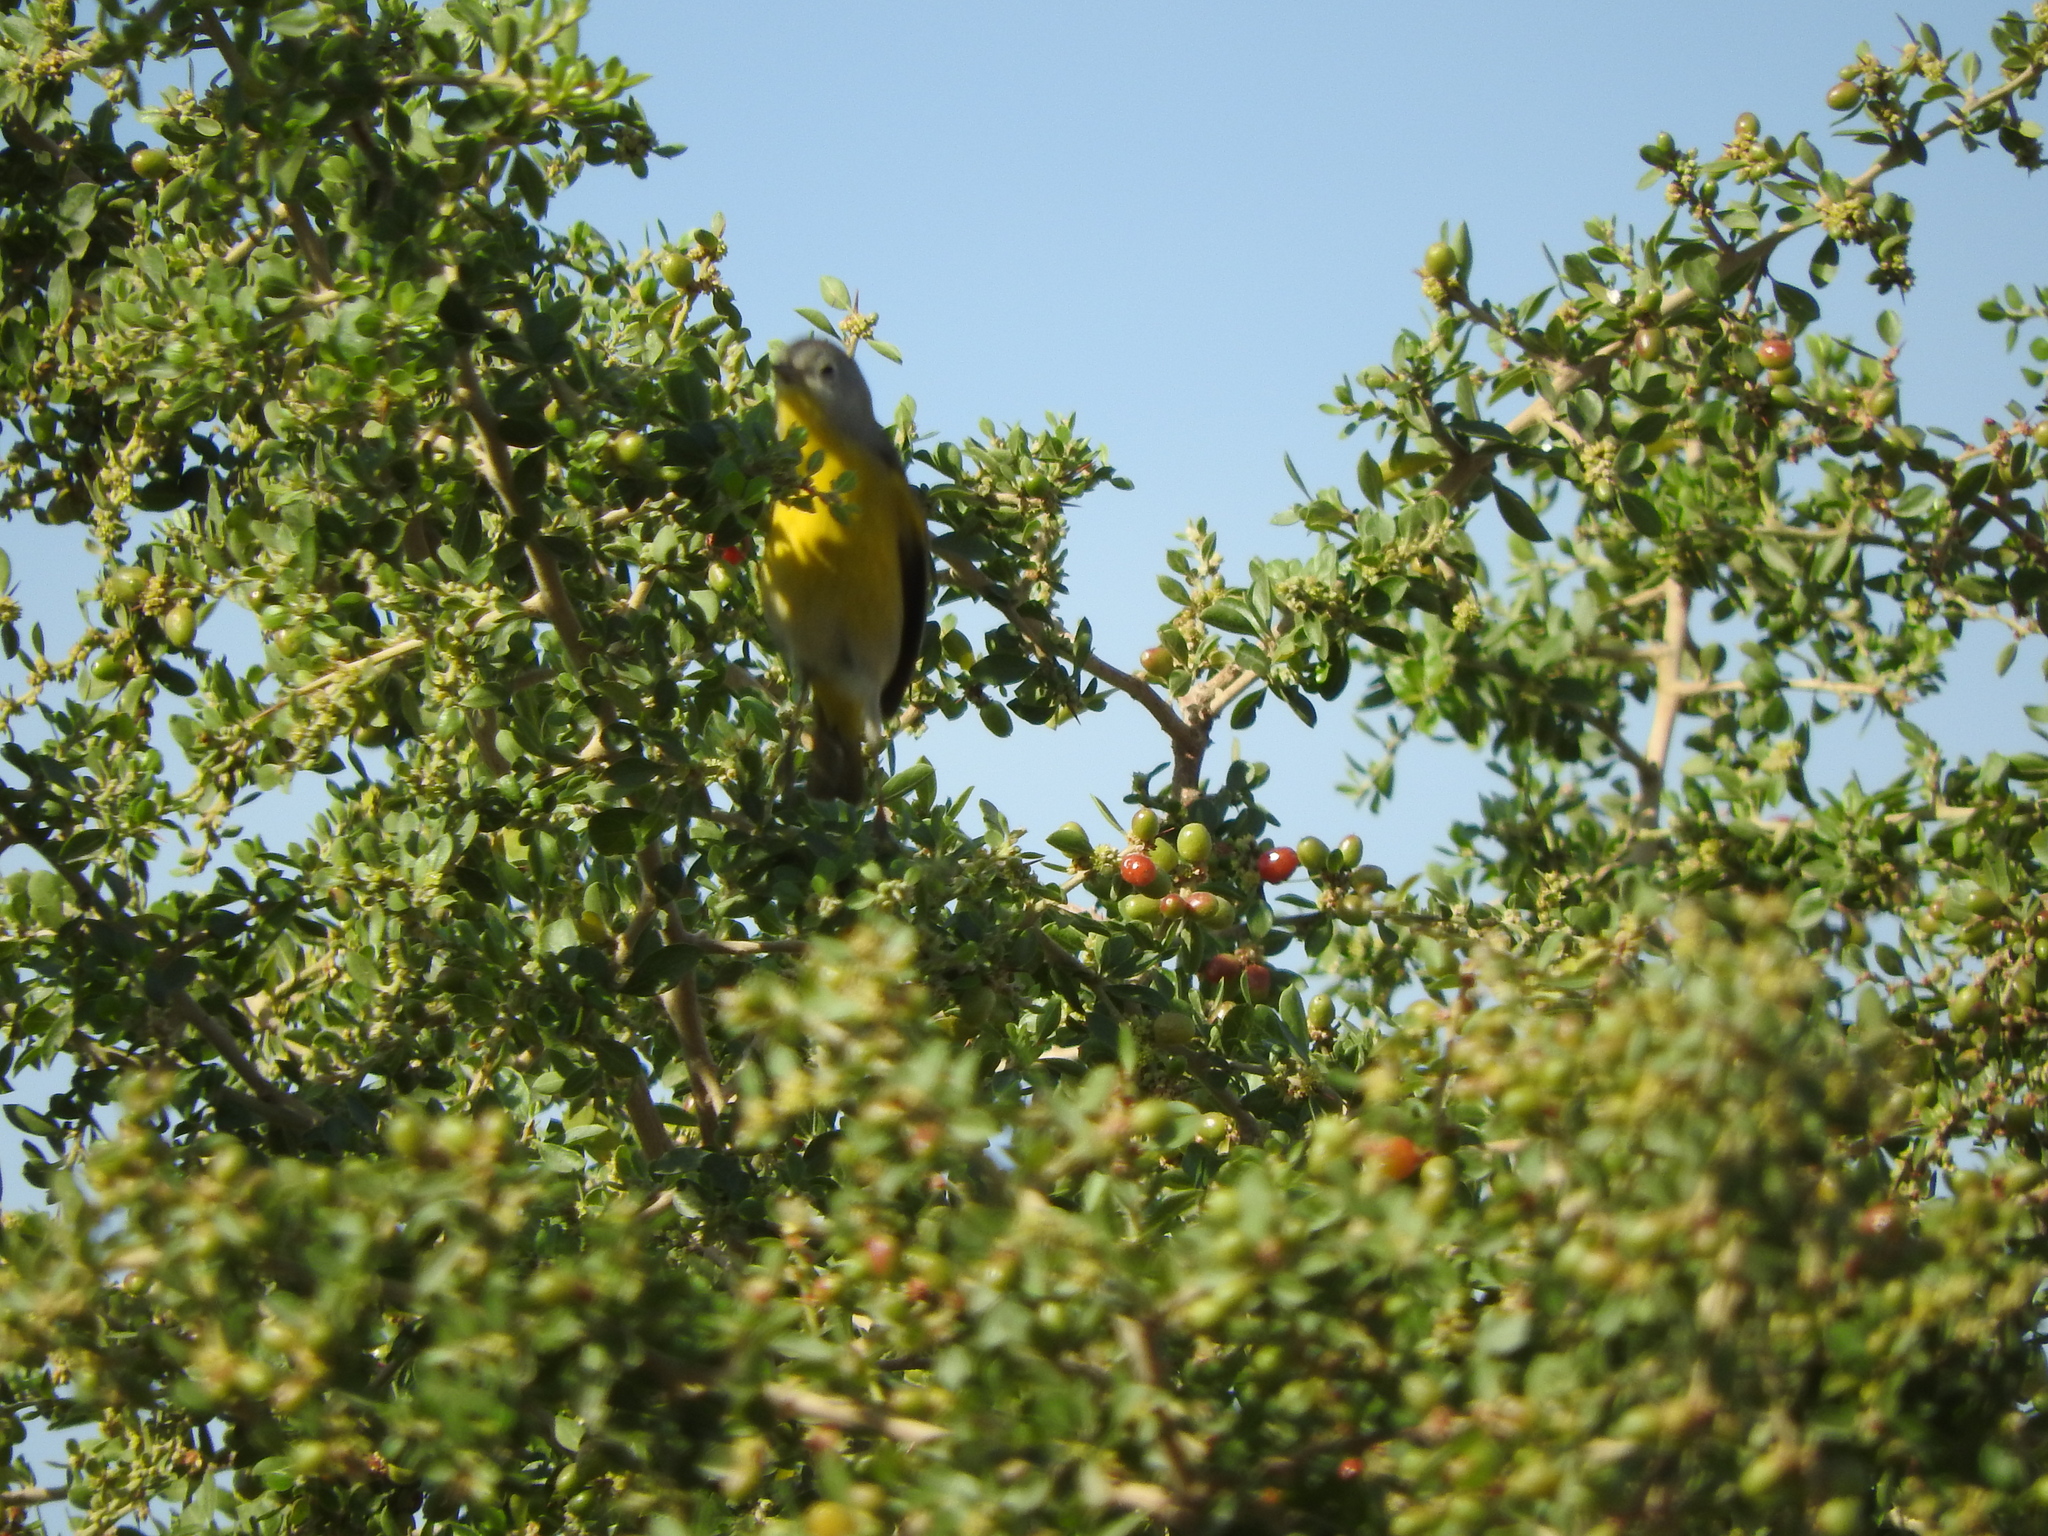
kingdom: Animalia
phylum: Chordata
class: Aves
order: Passeriformes
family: Parulidae
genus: Leiothlypis
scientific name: Leiothlypis ruficapilla
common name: Nashville warbler
